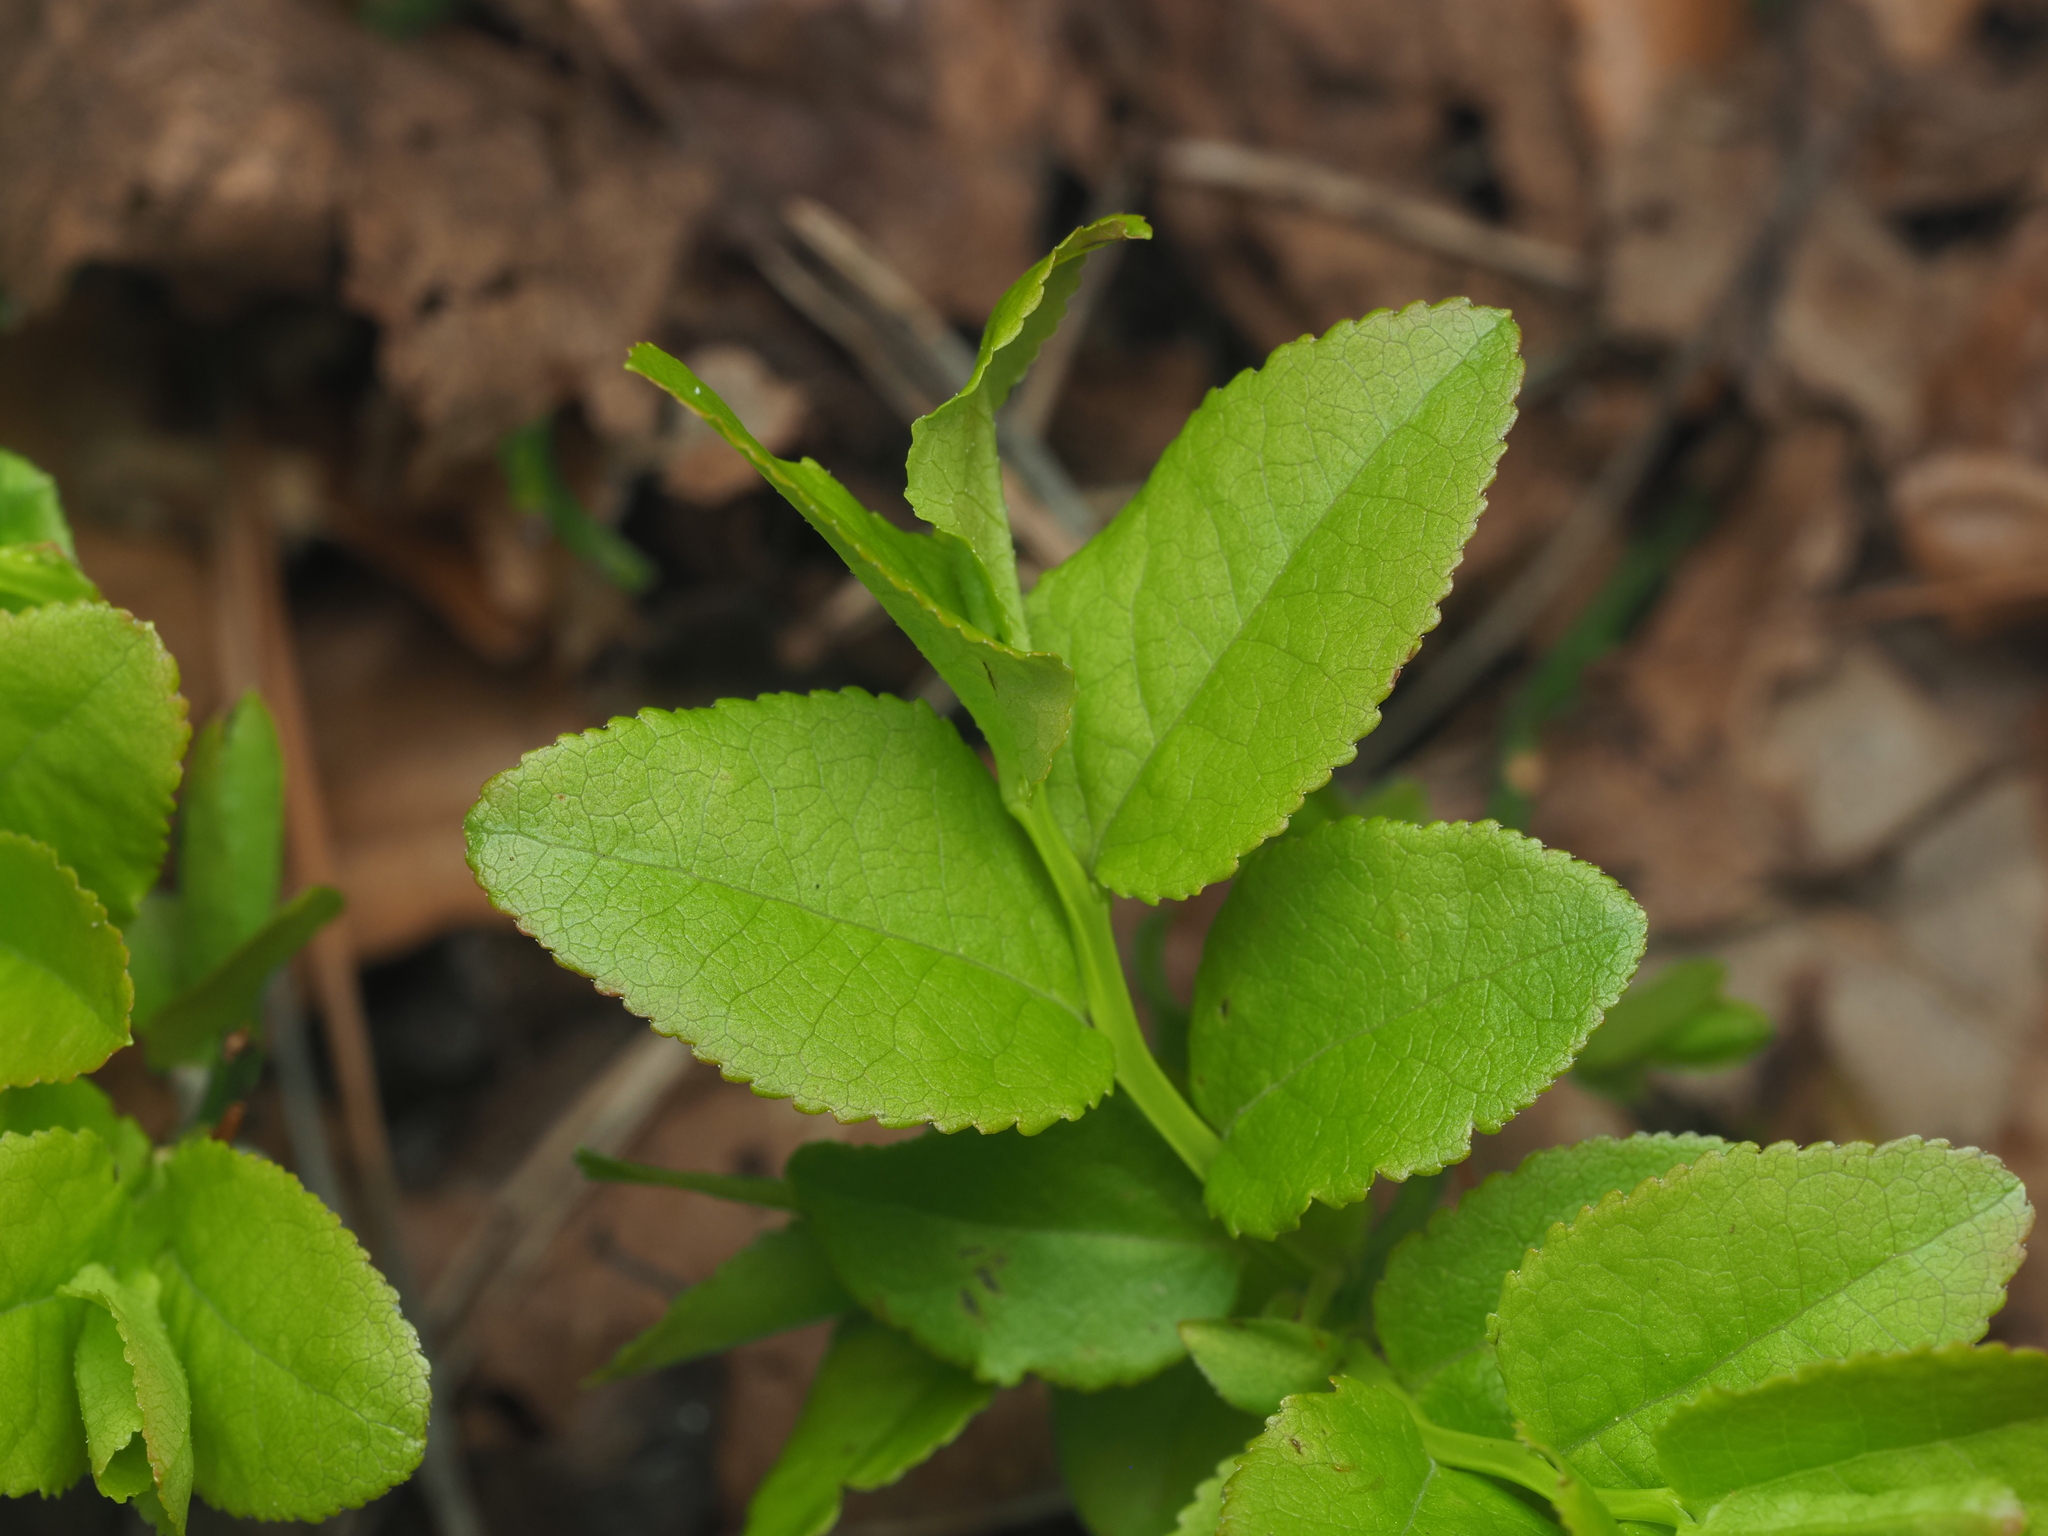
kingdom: Plantae
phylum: Tracheophyta
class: Magnoliopsida
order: Ericales
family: Ericaceae
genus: Vaccinium
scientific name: Vaccinium myrtillus
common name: Bilberry
